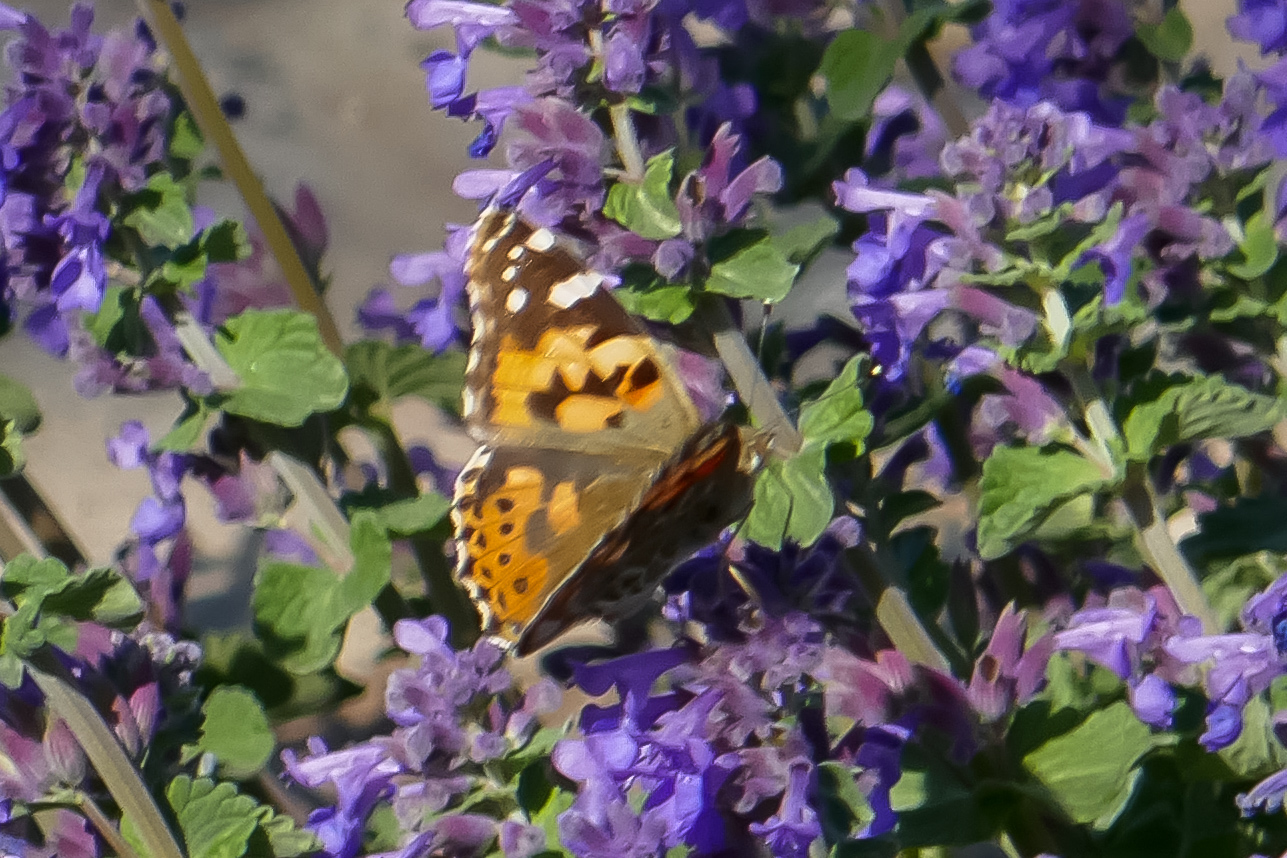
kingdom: Animalia
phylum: Arthropoda
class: Insecta
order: Lepidoptera
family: Nymphalidae
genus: Vanessa
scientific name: Vanessa cardui
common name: Painted lady
